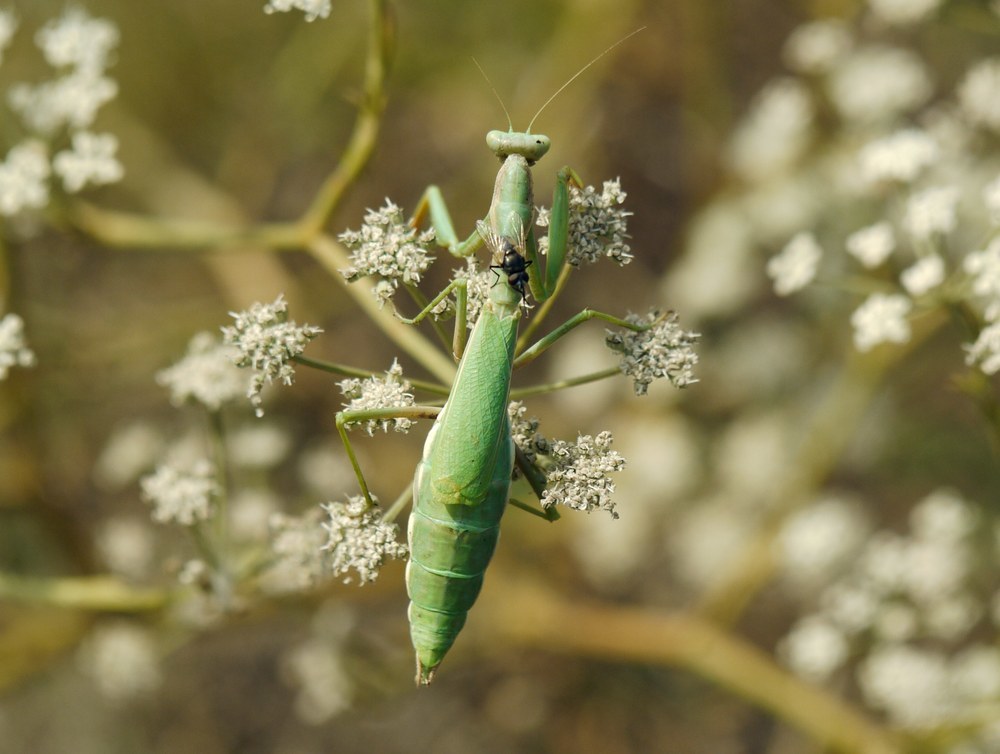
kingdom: Animalia
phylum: Arthropoda
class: Insecta
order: Mantodea
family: Eremiaphilidae
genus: Iris
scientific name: Iris polystictica
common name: Dot-winged mantis
